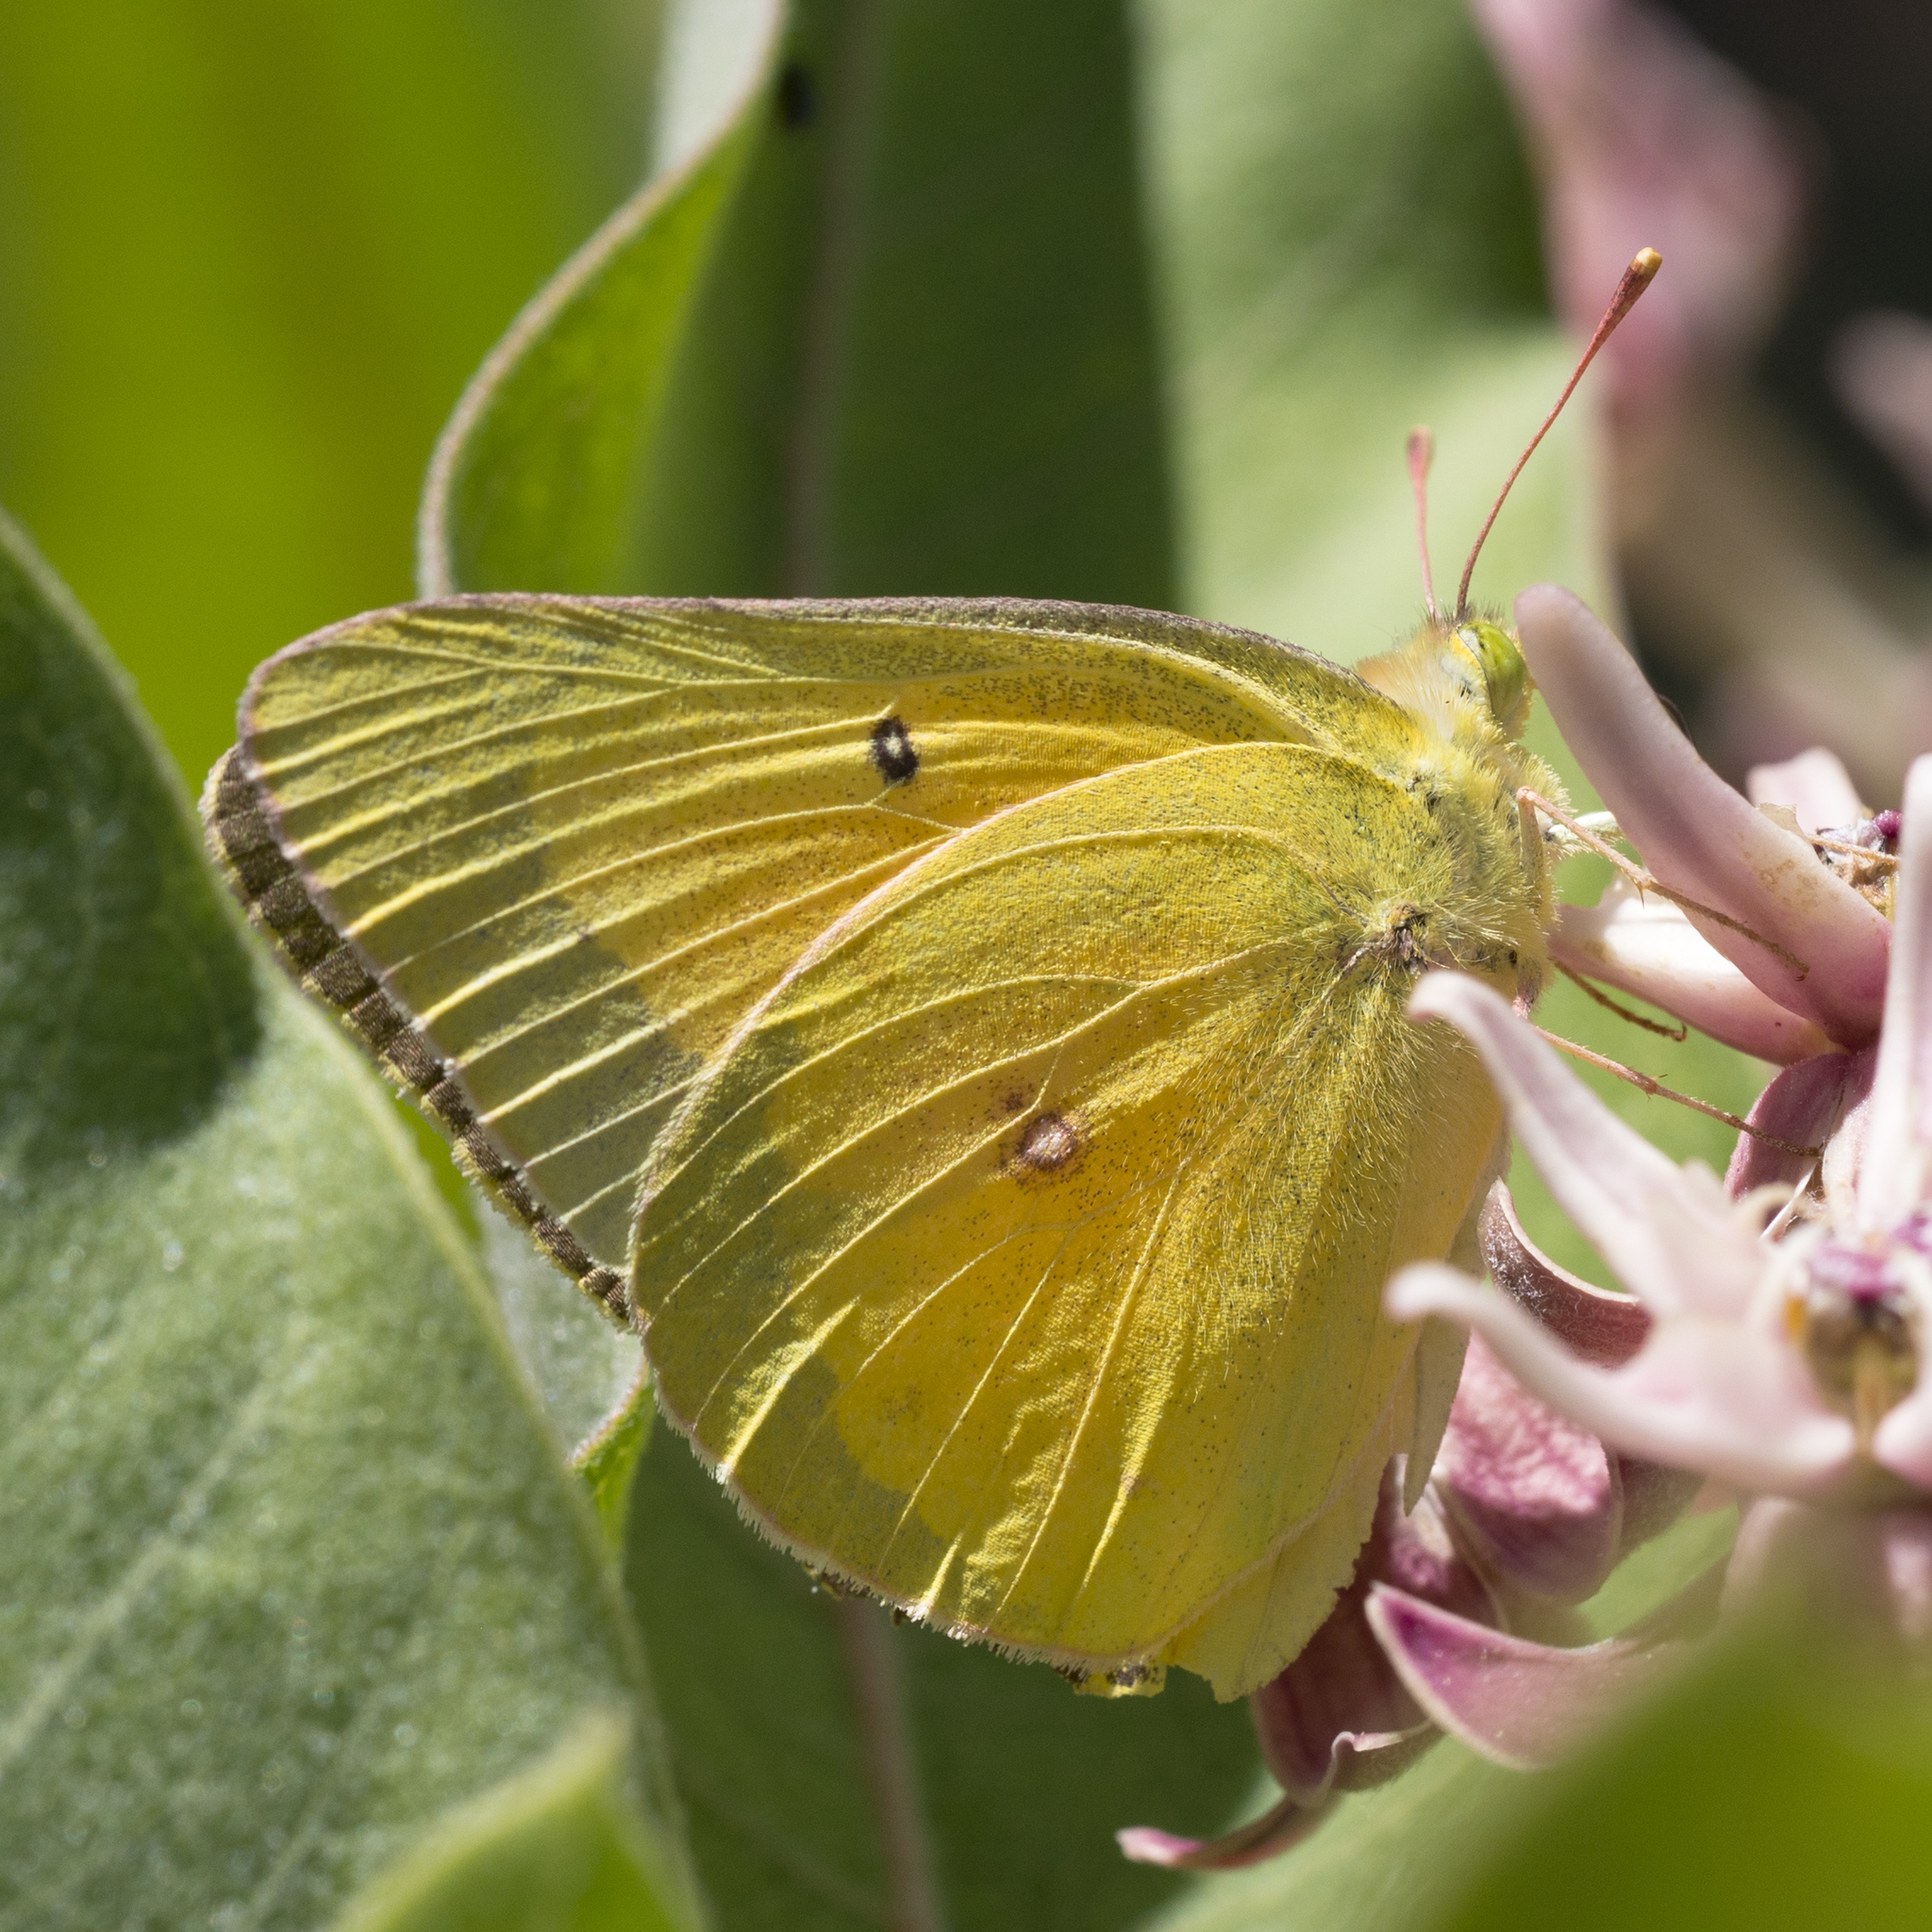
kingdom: Animalia
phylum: Arthropoda
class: Insecta
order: Lepidoptera
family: Pieridae
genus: Colias
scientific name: Colias eurytheme
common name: Alfalfa butterfly
